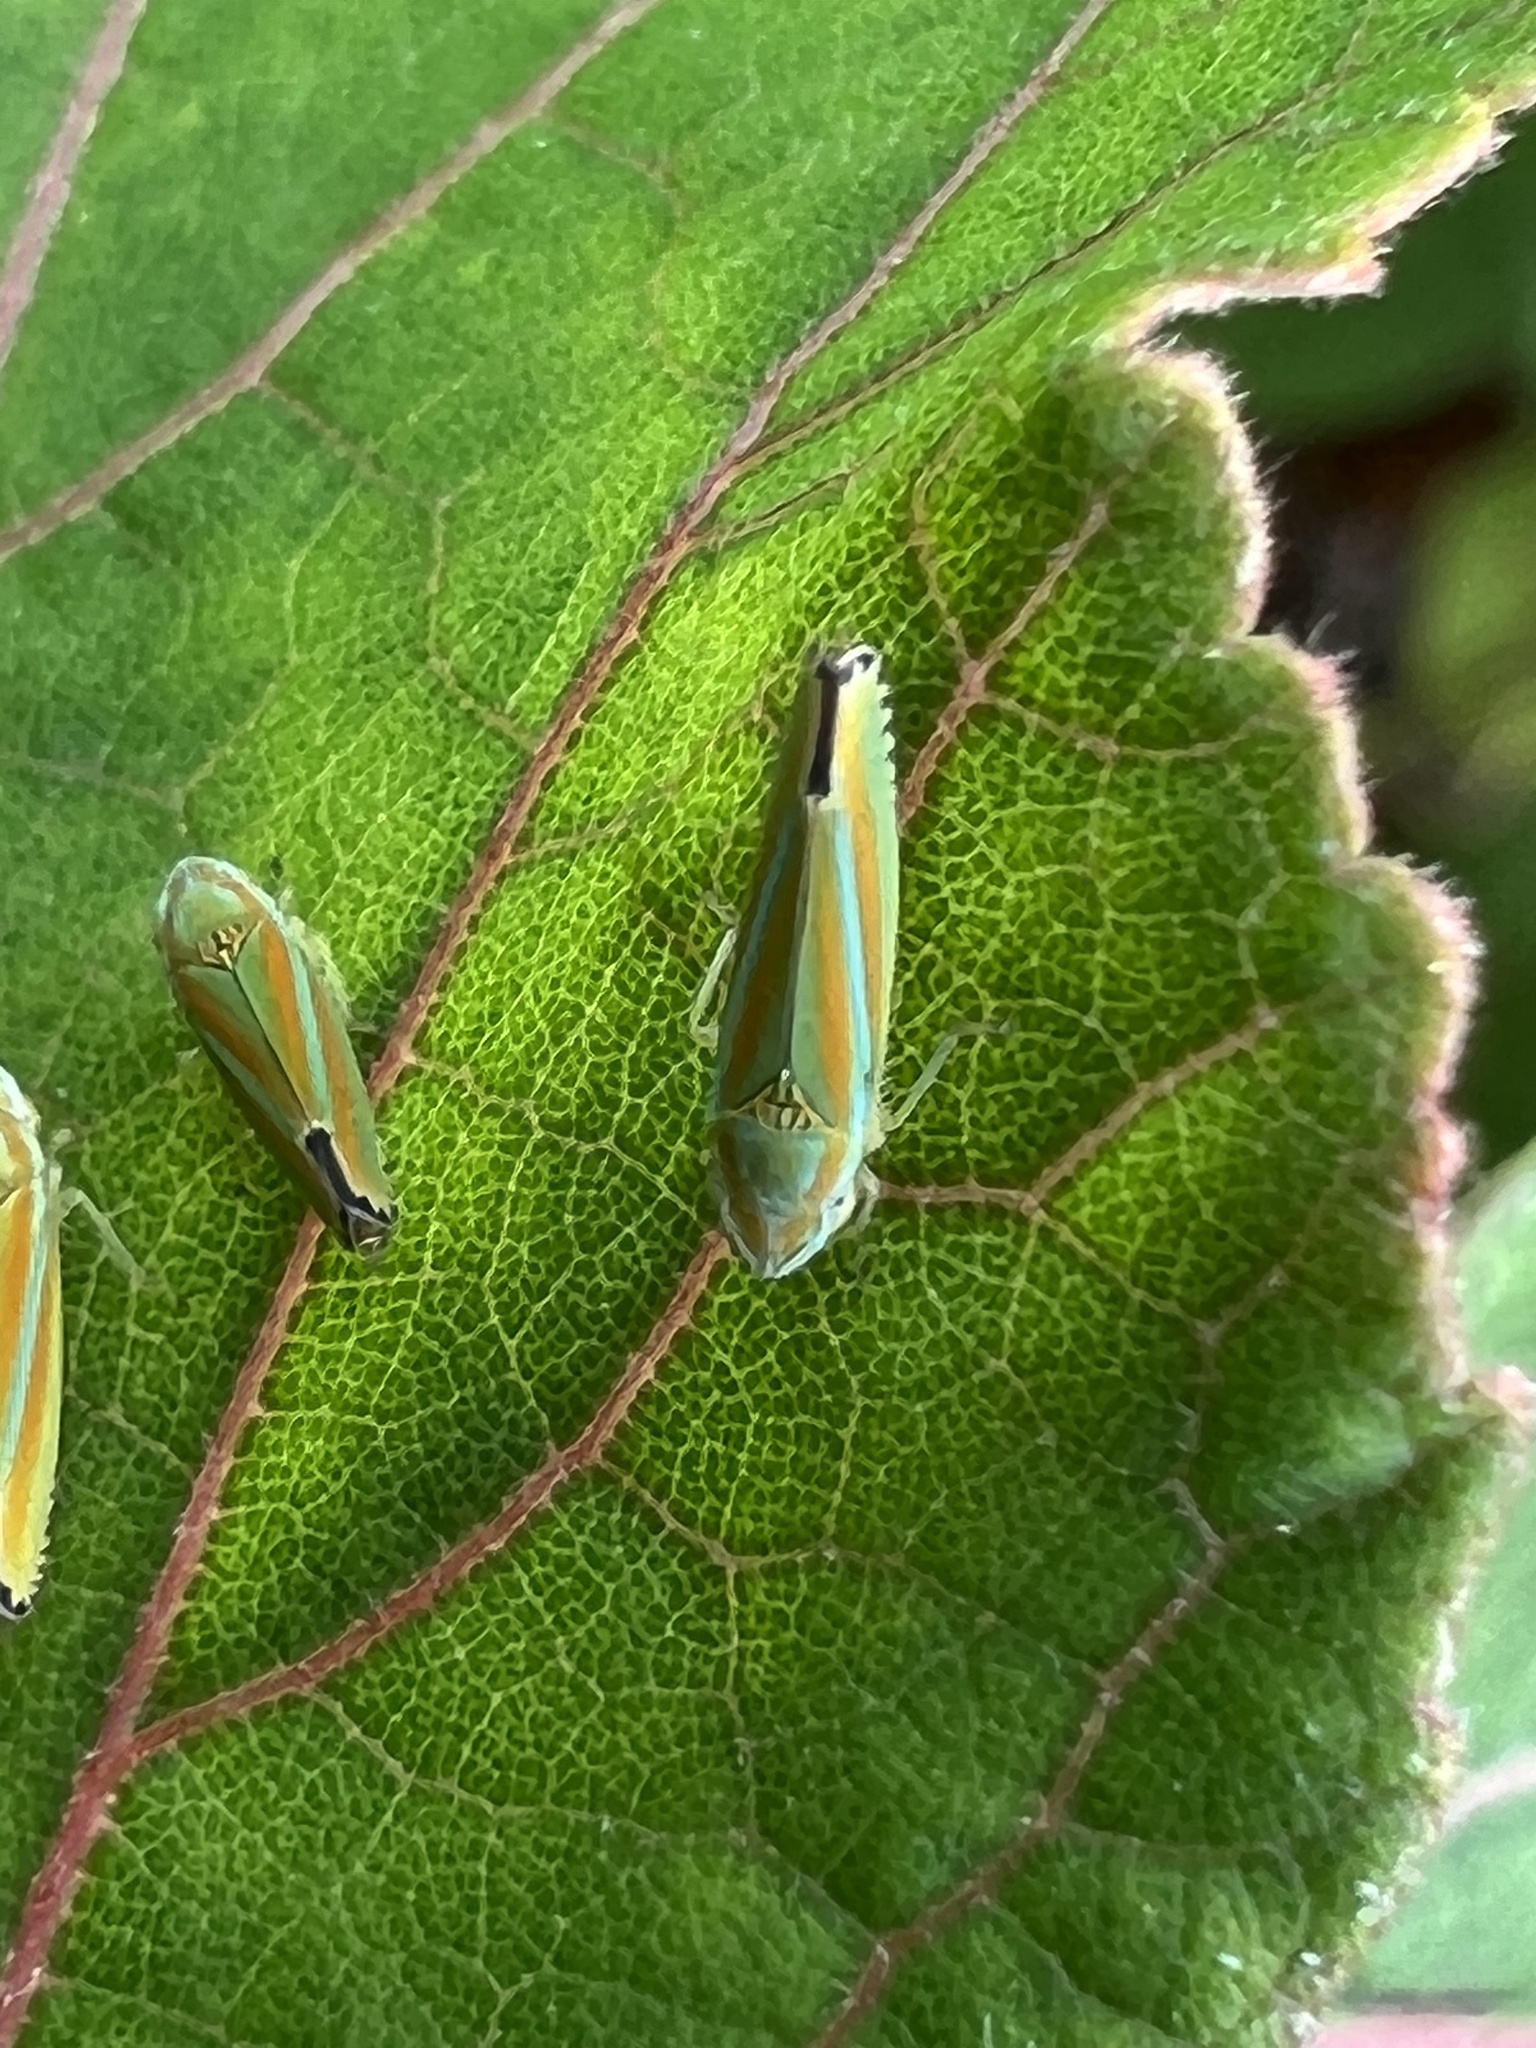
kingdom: Animalia
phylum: Arthropoda
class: Insecta
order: Hemiptera
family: Cicadellidae
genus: Graphocephala
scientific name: Graphocephala versuta
